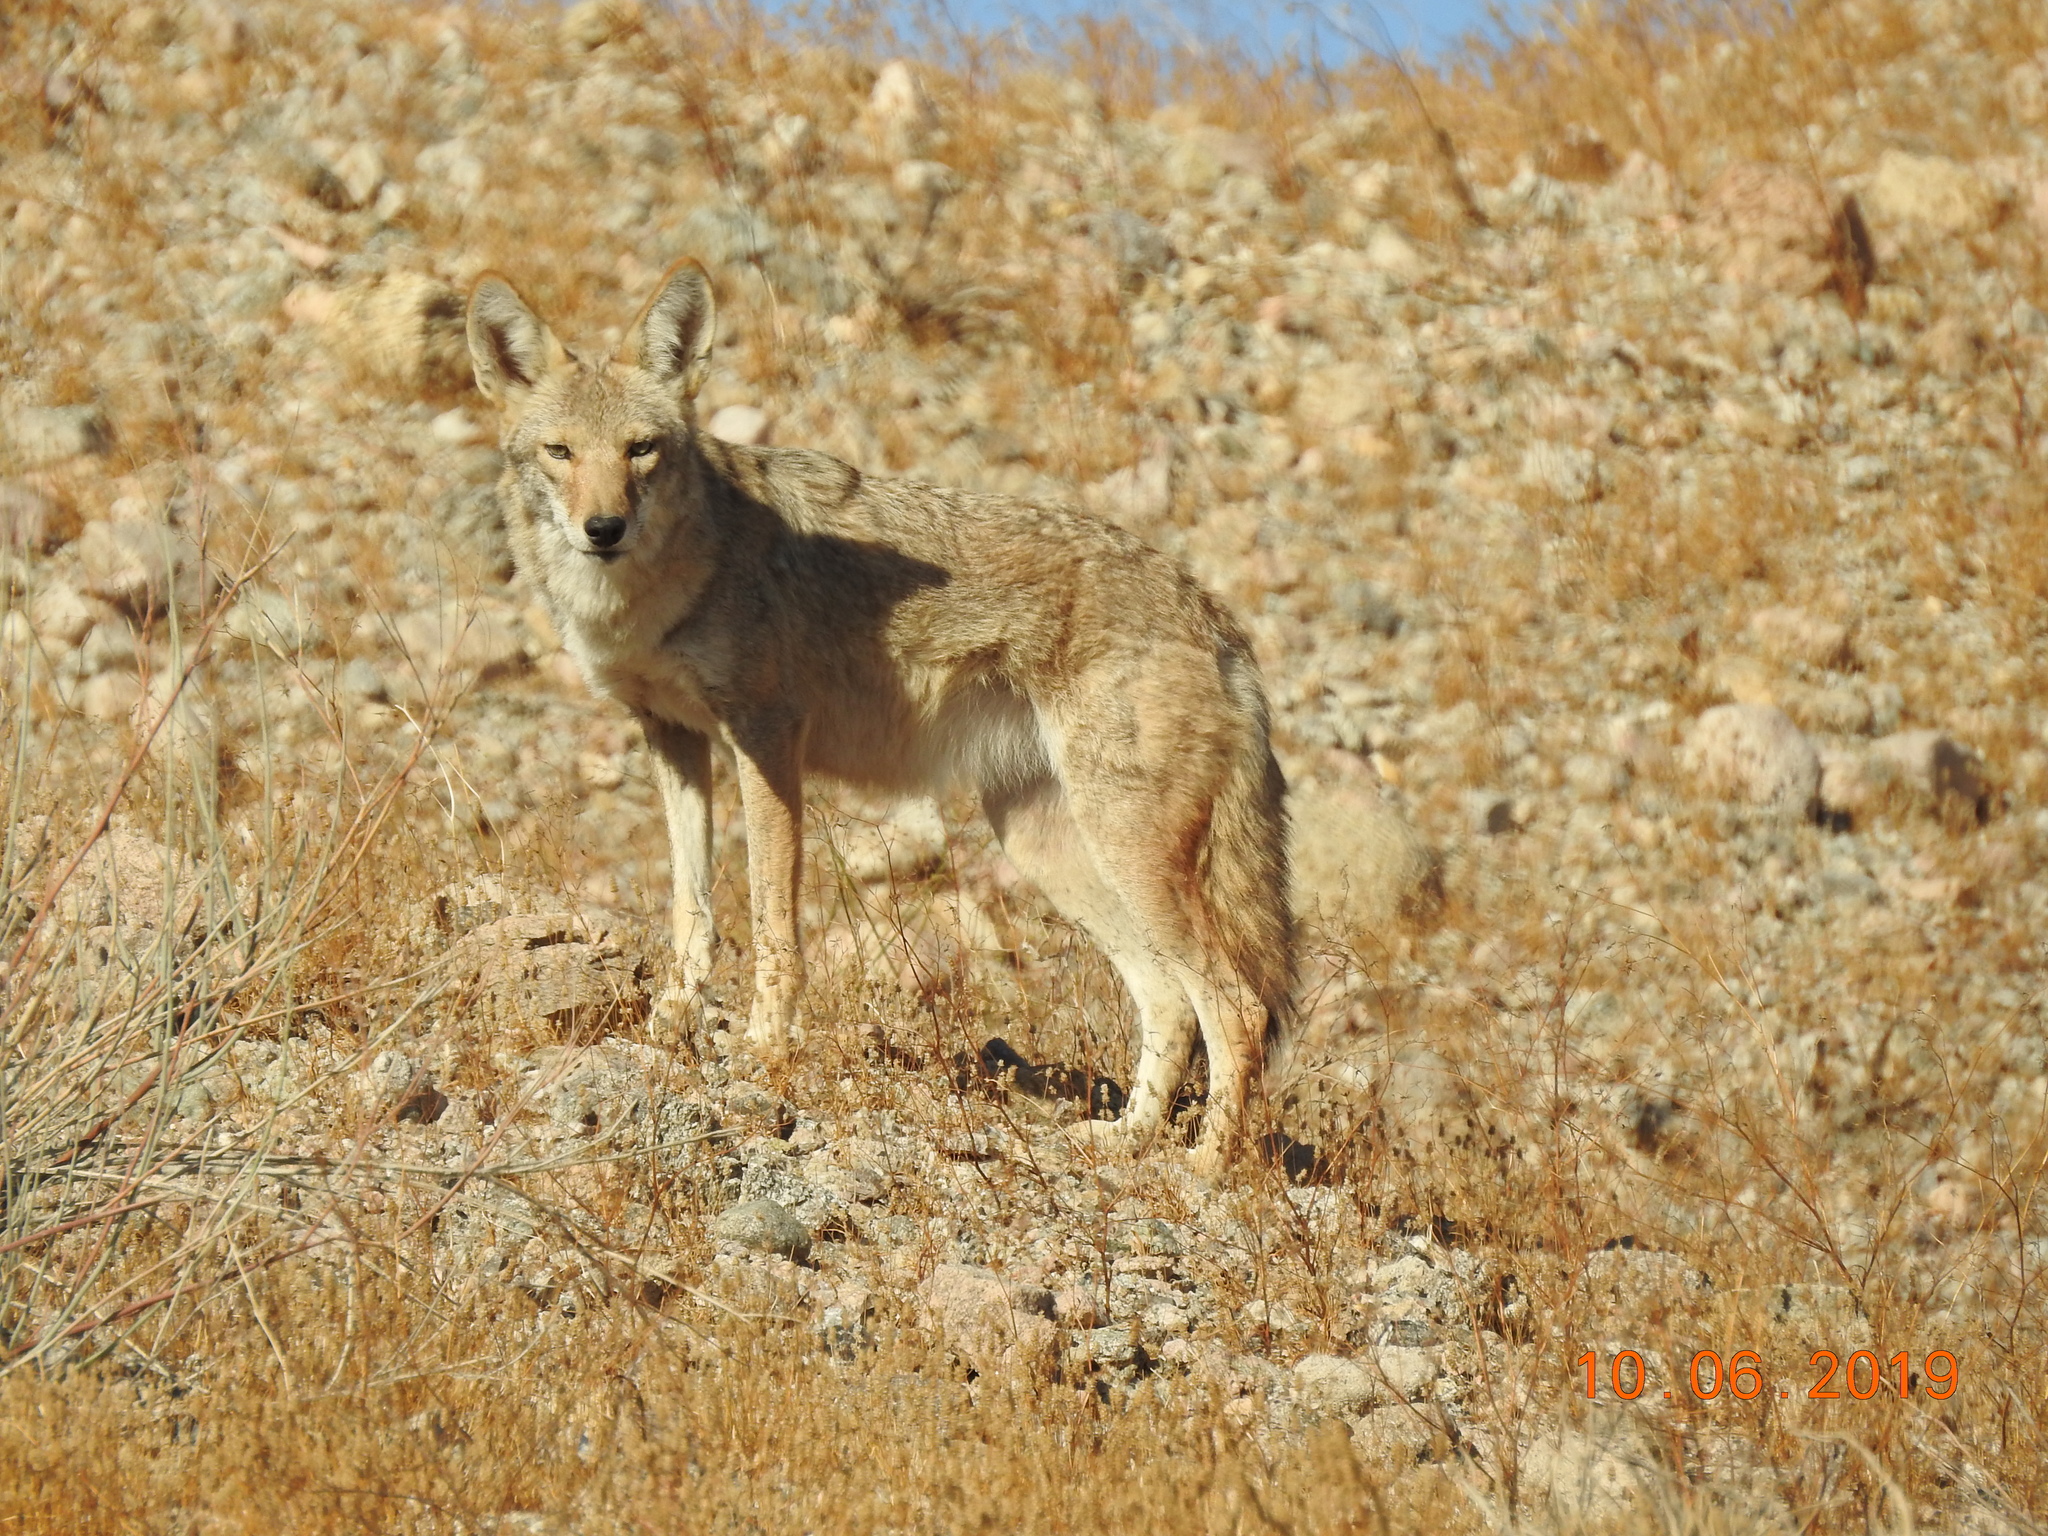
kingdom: Animalia
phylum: Chordata
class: Mammalia
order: Carnivora
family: Canidae
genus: Canis
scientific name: Canis latrans
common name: Coyote
